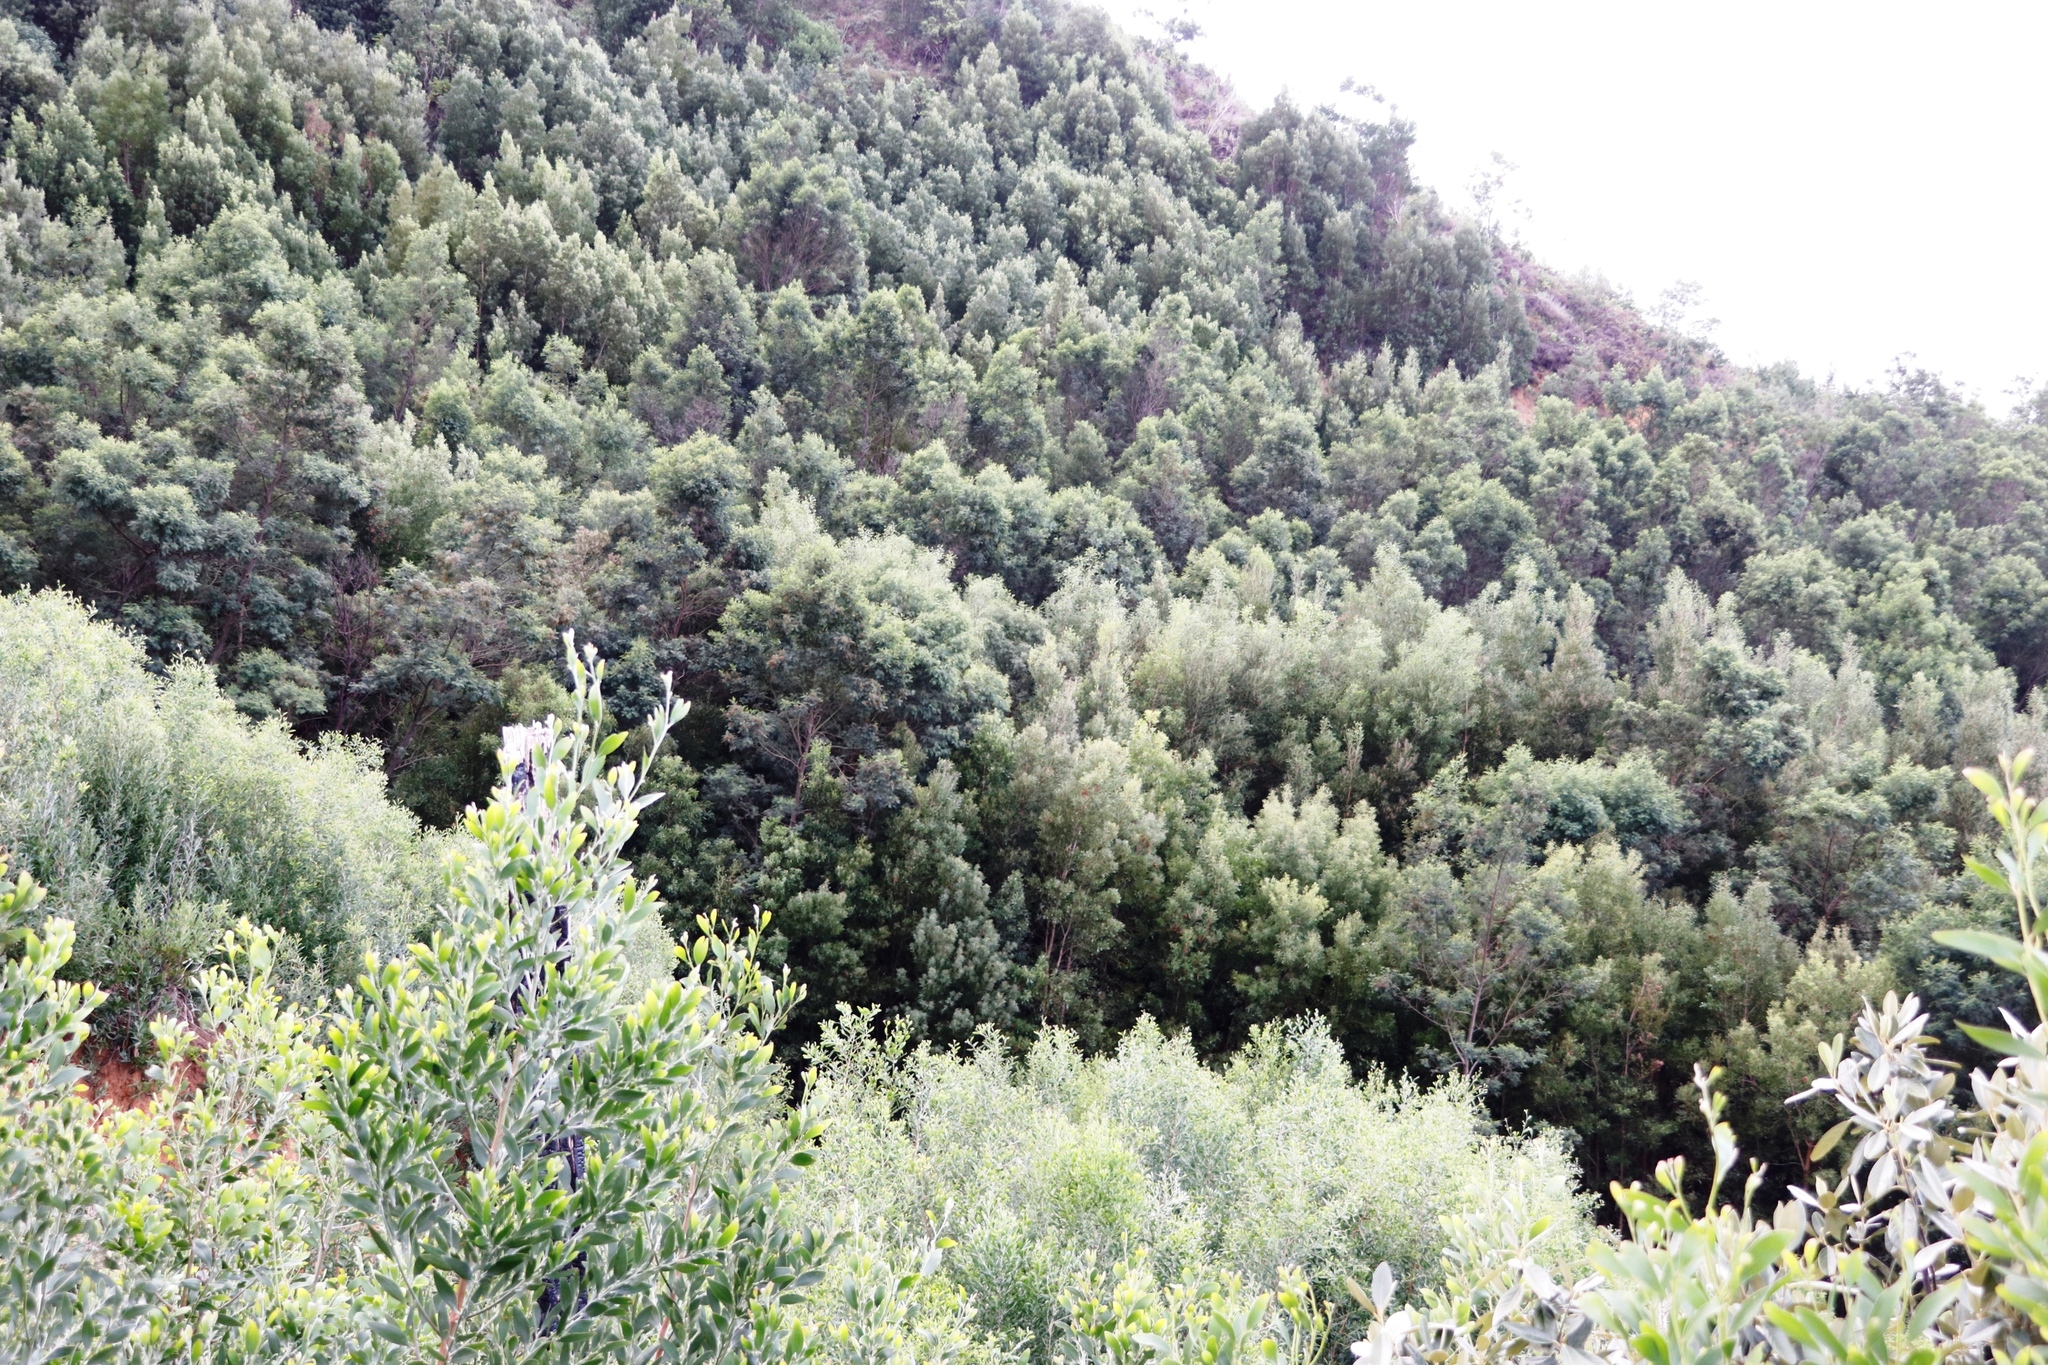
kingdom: Plantae
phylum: Tracheophyta
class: Magnoliopsida
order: Fabales
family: Fabaceae
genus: Acacia
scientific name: Acacia melanoxylon
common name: Blackwood
